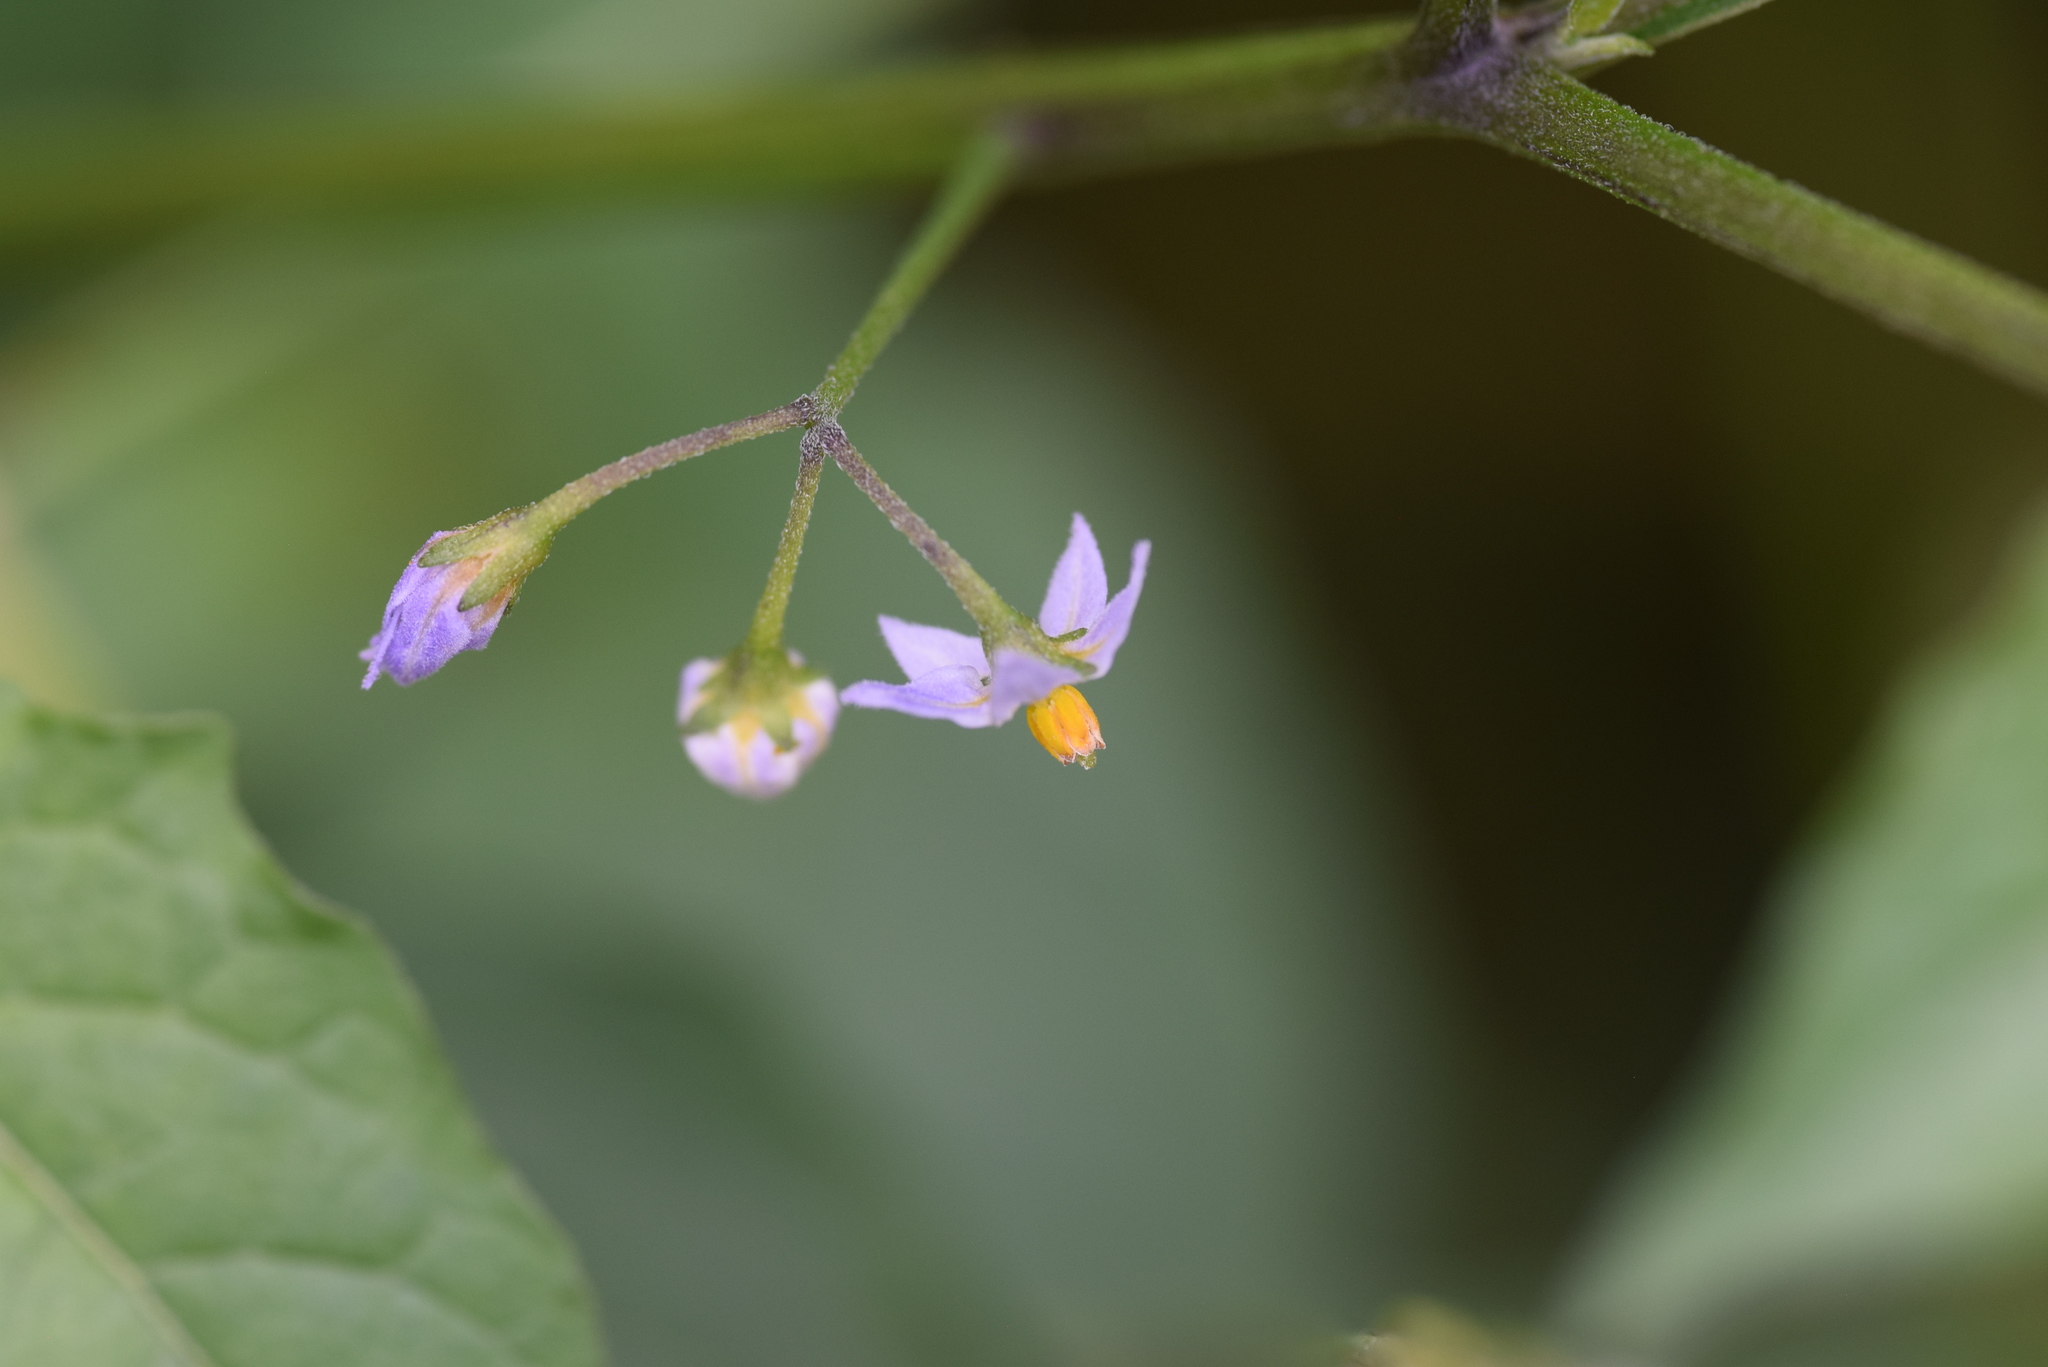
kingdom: Plantae
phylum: Tracheophyta
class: Magnoliopsida
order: Solanales
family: Solanaceae
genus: Solanum
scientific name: Solanum emulans
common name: Eastern black nightshade
